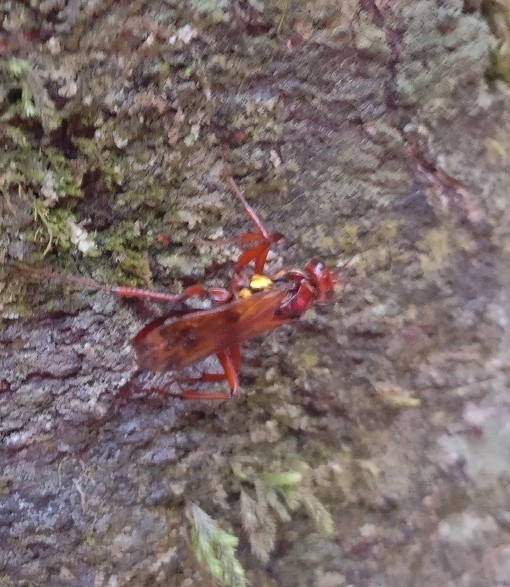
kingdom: Animalia
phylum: Arthropoda
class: Insecta
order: Hymenoptera
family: Pompilidae
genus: Sphictostethus
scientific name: Sphictostethus nitidus
